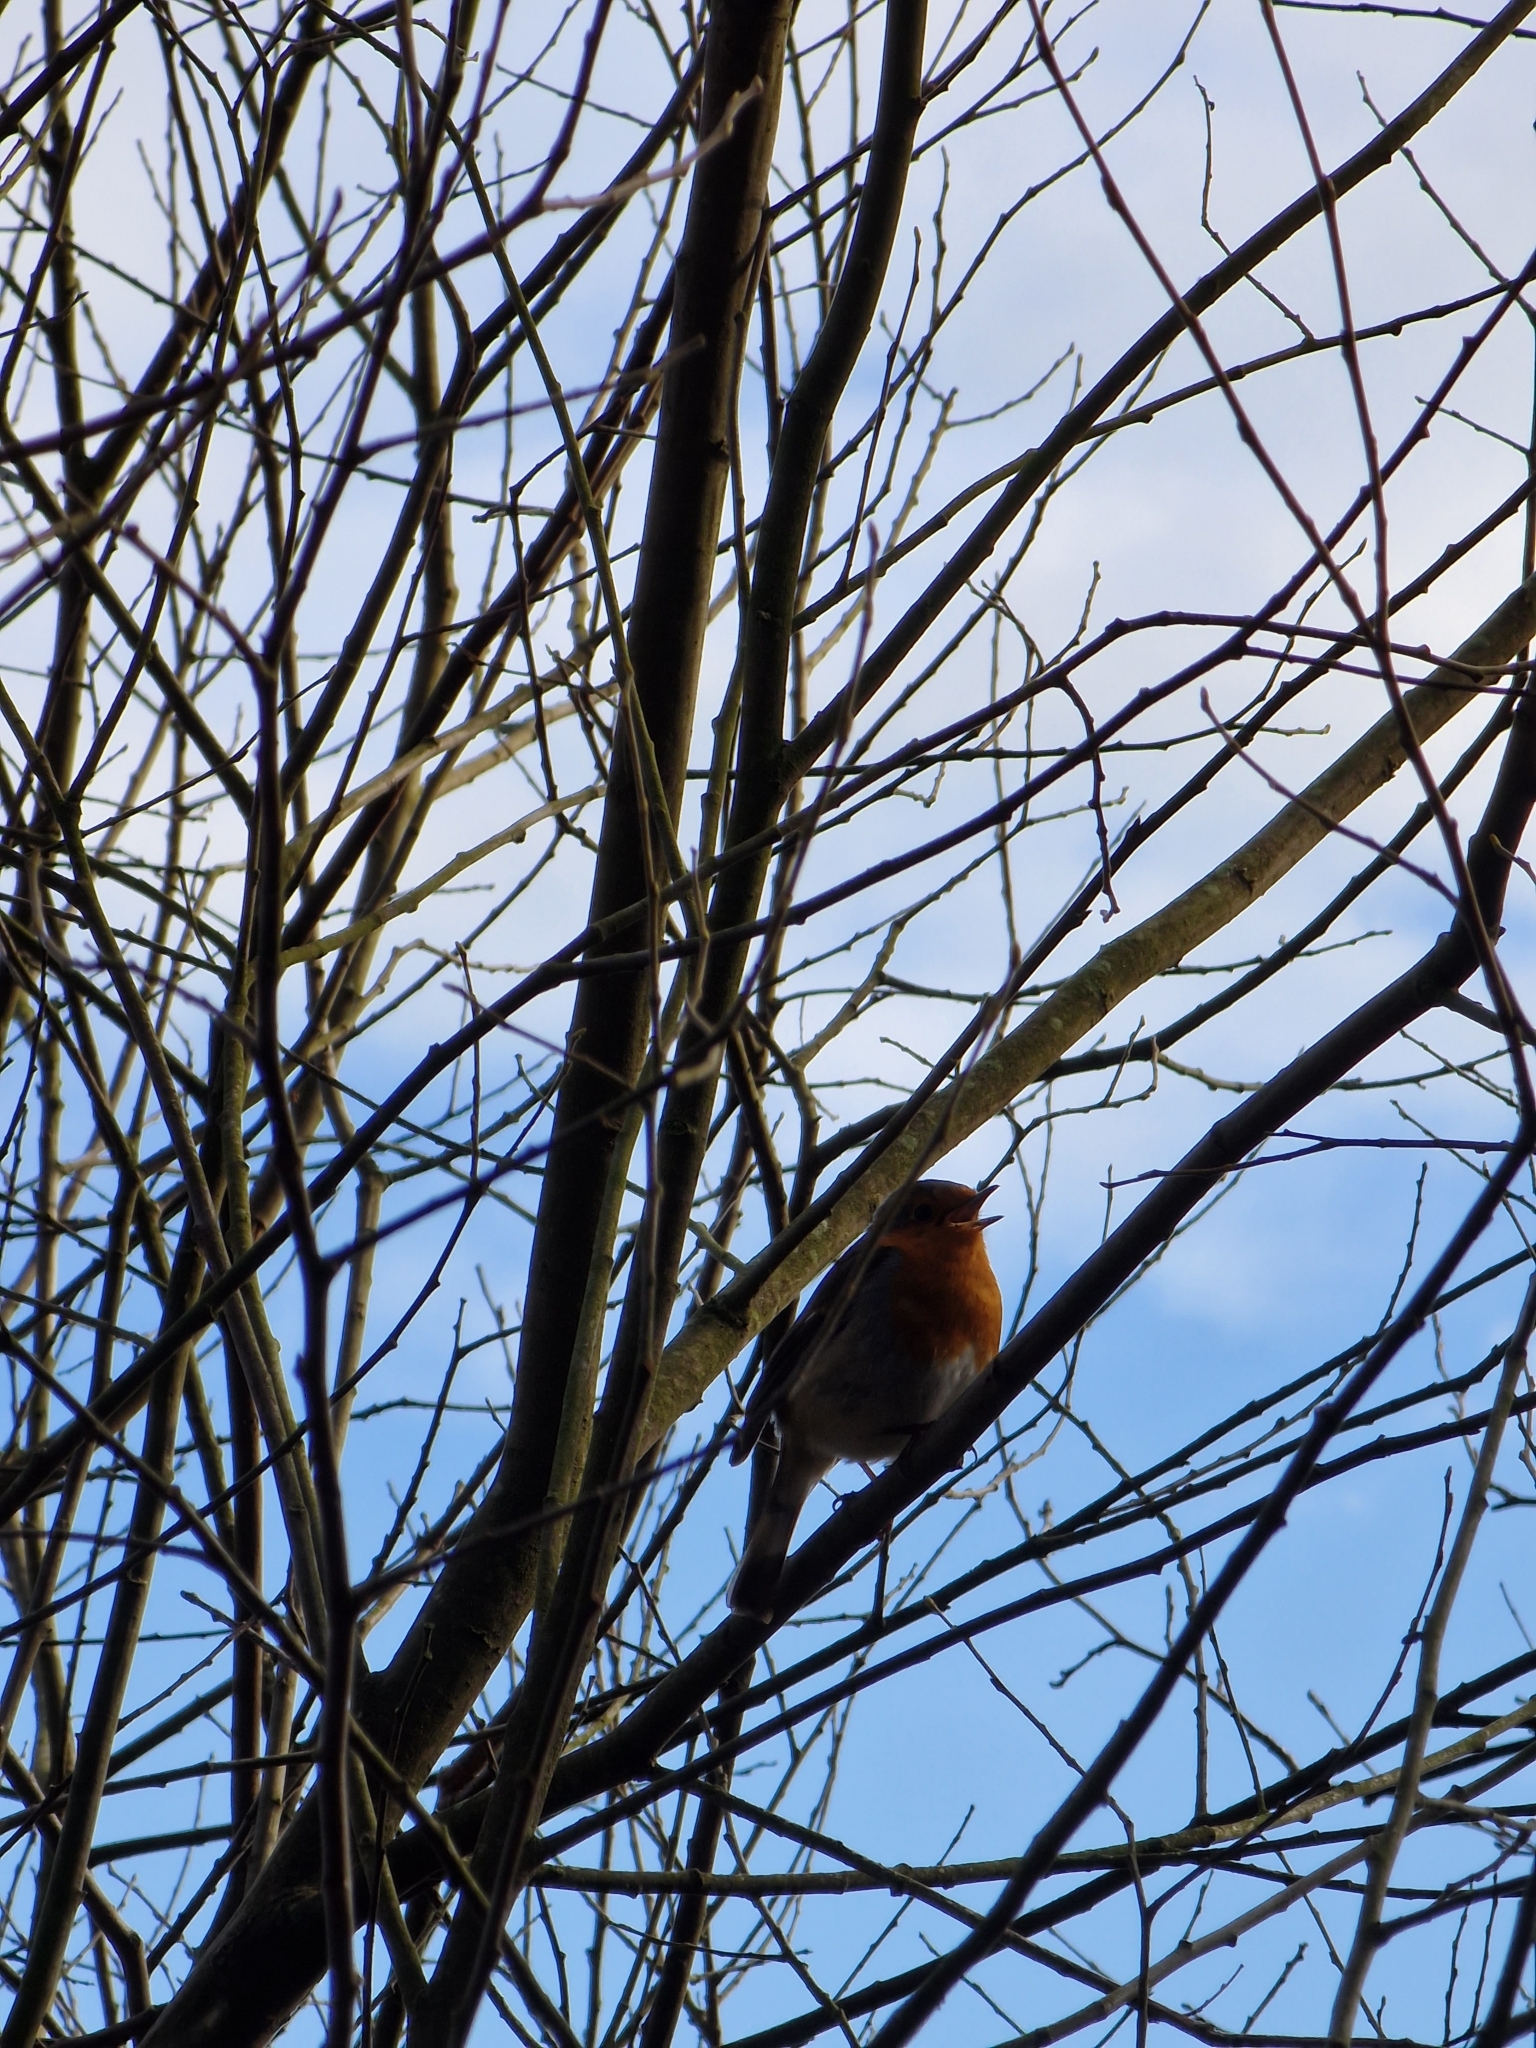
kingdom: Animalia
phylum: Chordata
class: Aves
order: Passeriformes
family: Muscicapidae
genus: Erithacus
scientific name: Erithacus rubecula
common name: European robin
